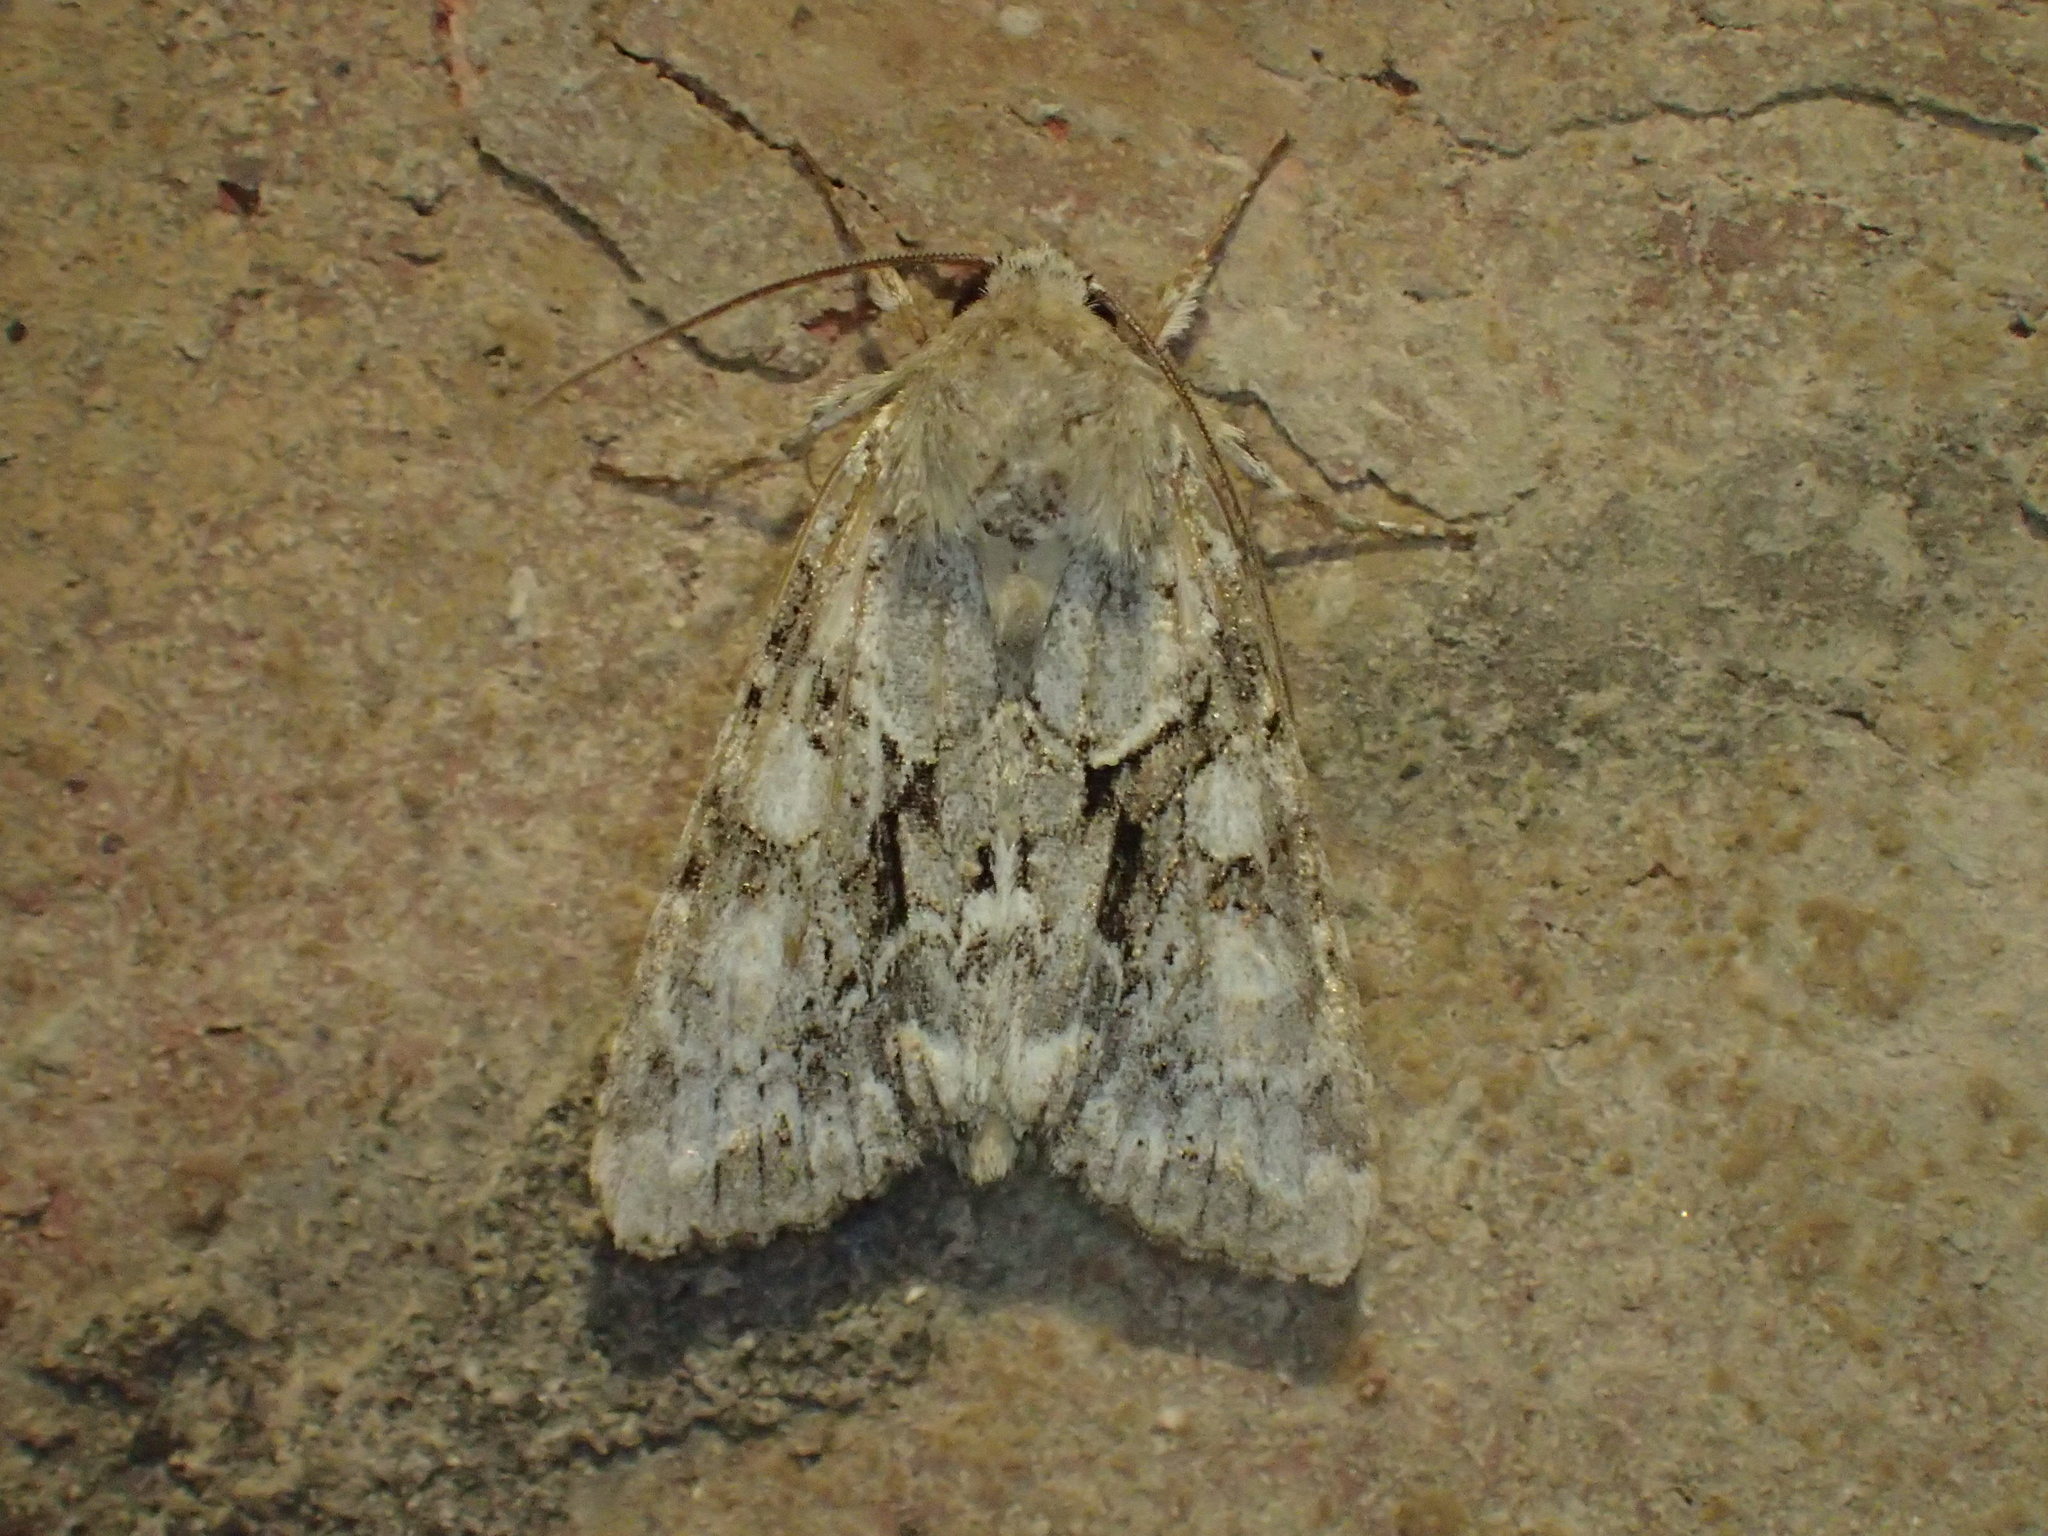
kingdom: Animalia
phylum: Arthropoda
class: Insecta
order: Lepidoptera
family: Noctuidae
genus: Achatia
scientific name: Achatia distincta
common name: Distinct quaker
